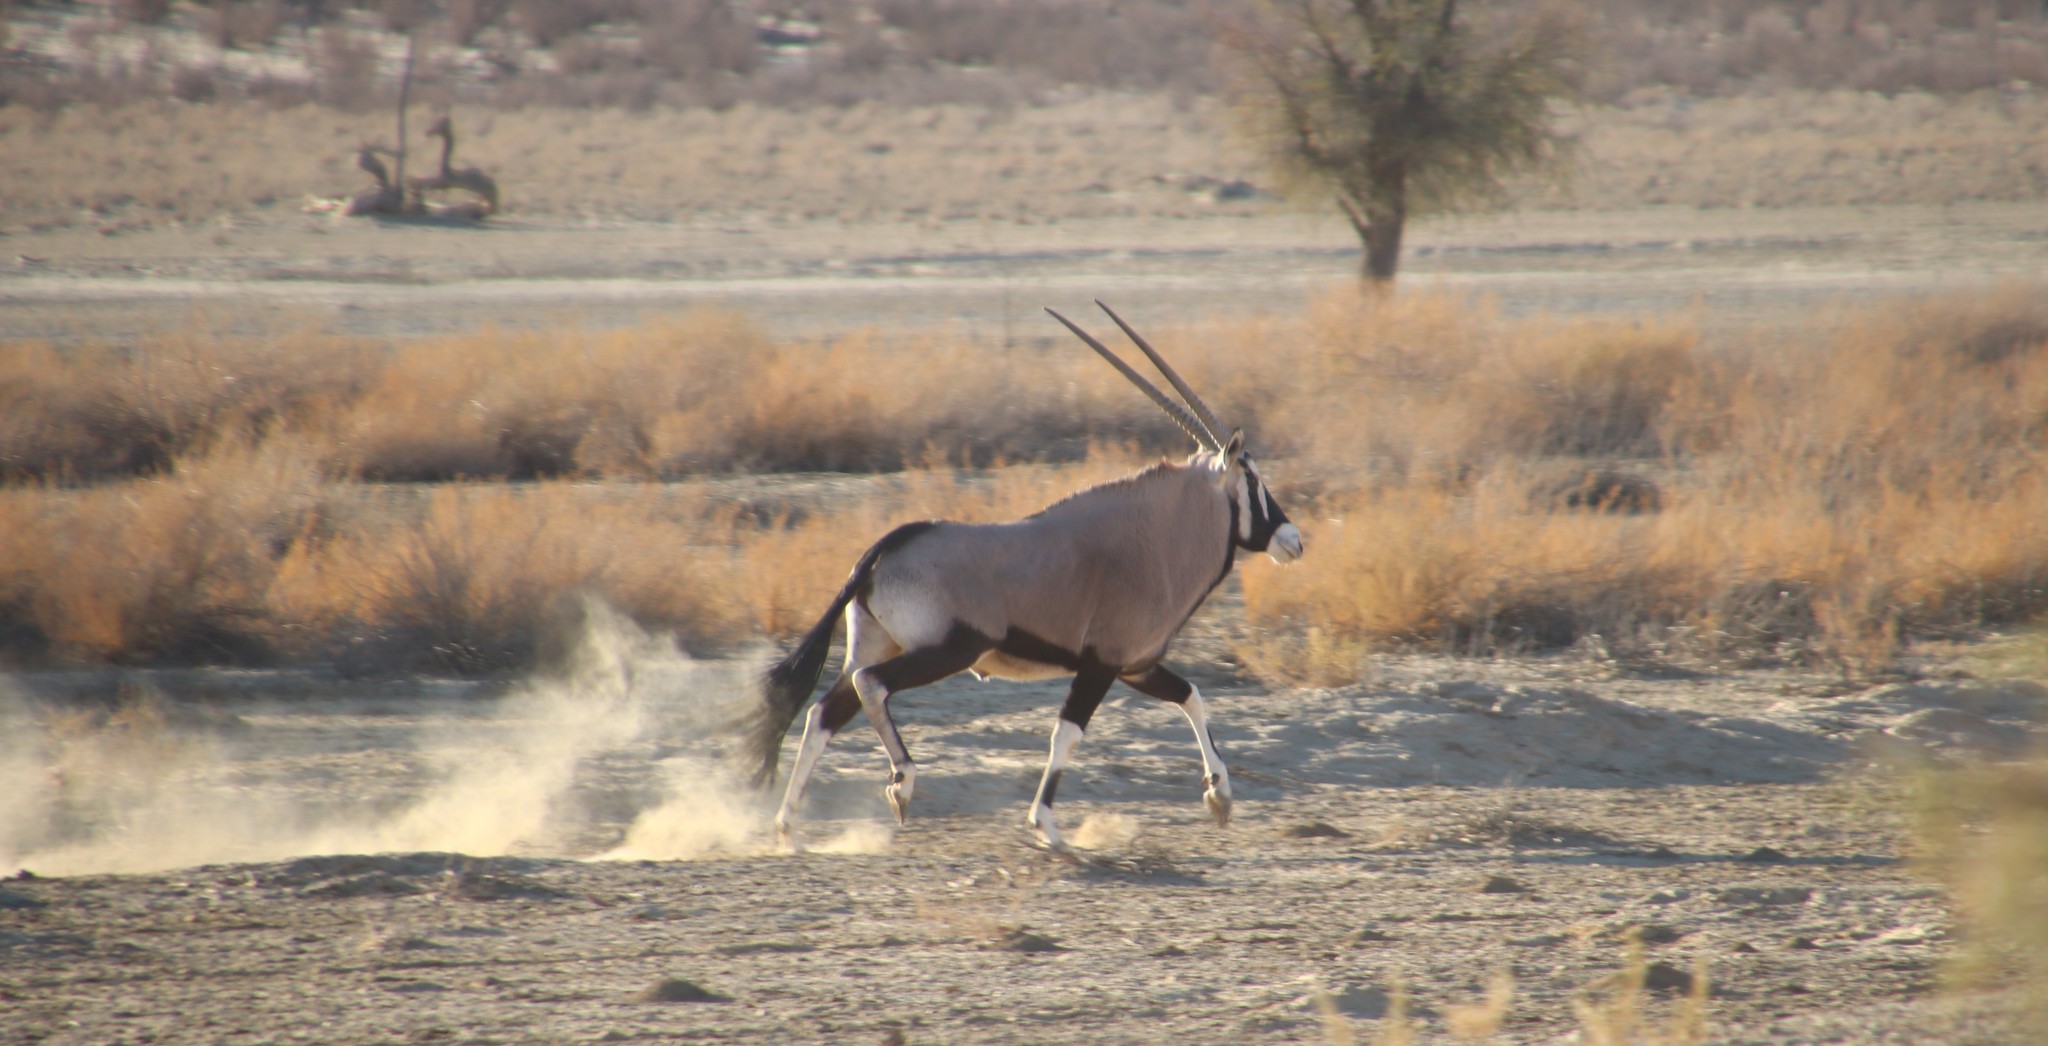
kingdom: Animalia
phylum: Chordata
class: Mammalia
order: Artiodactyla
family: Bovidae
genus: Oryx
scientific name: Oryx gazella
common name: Gemsbok
